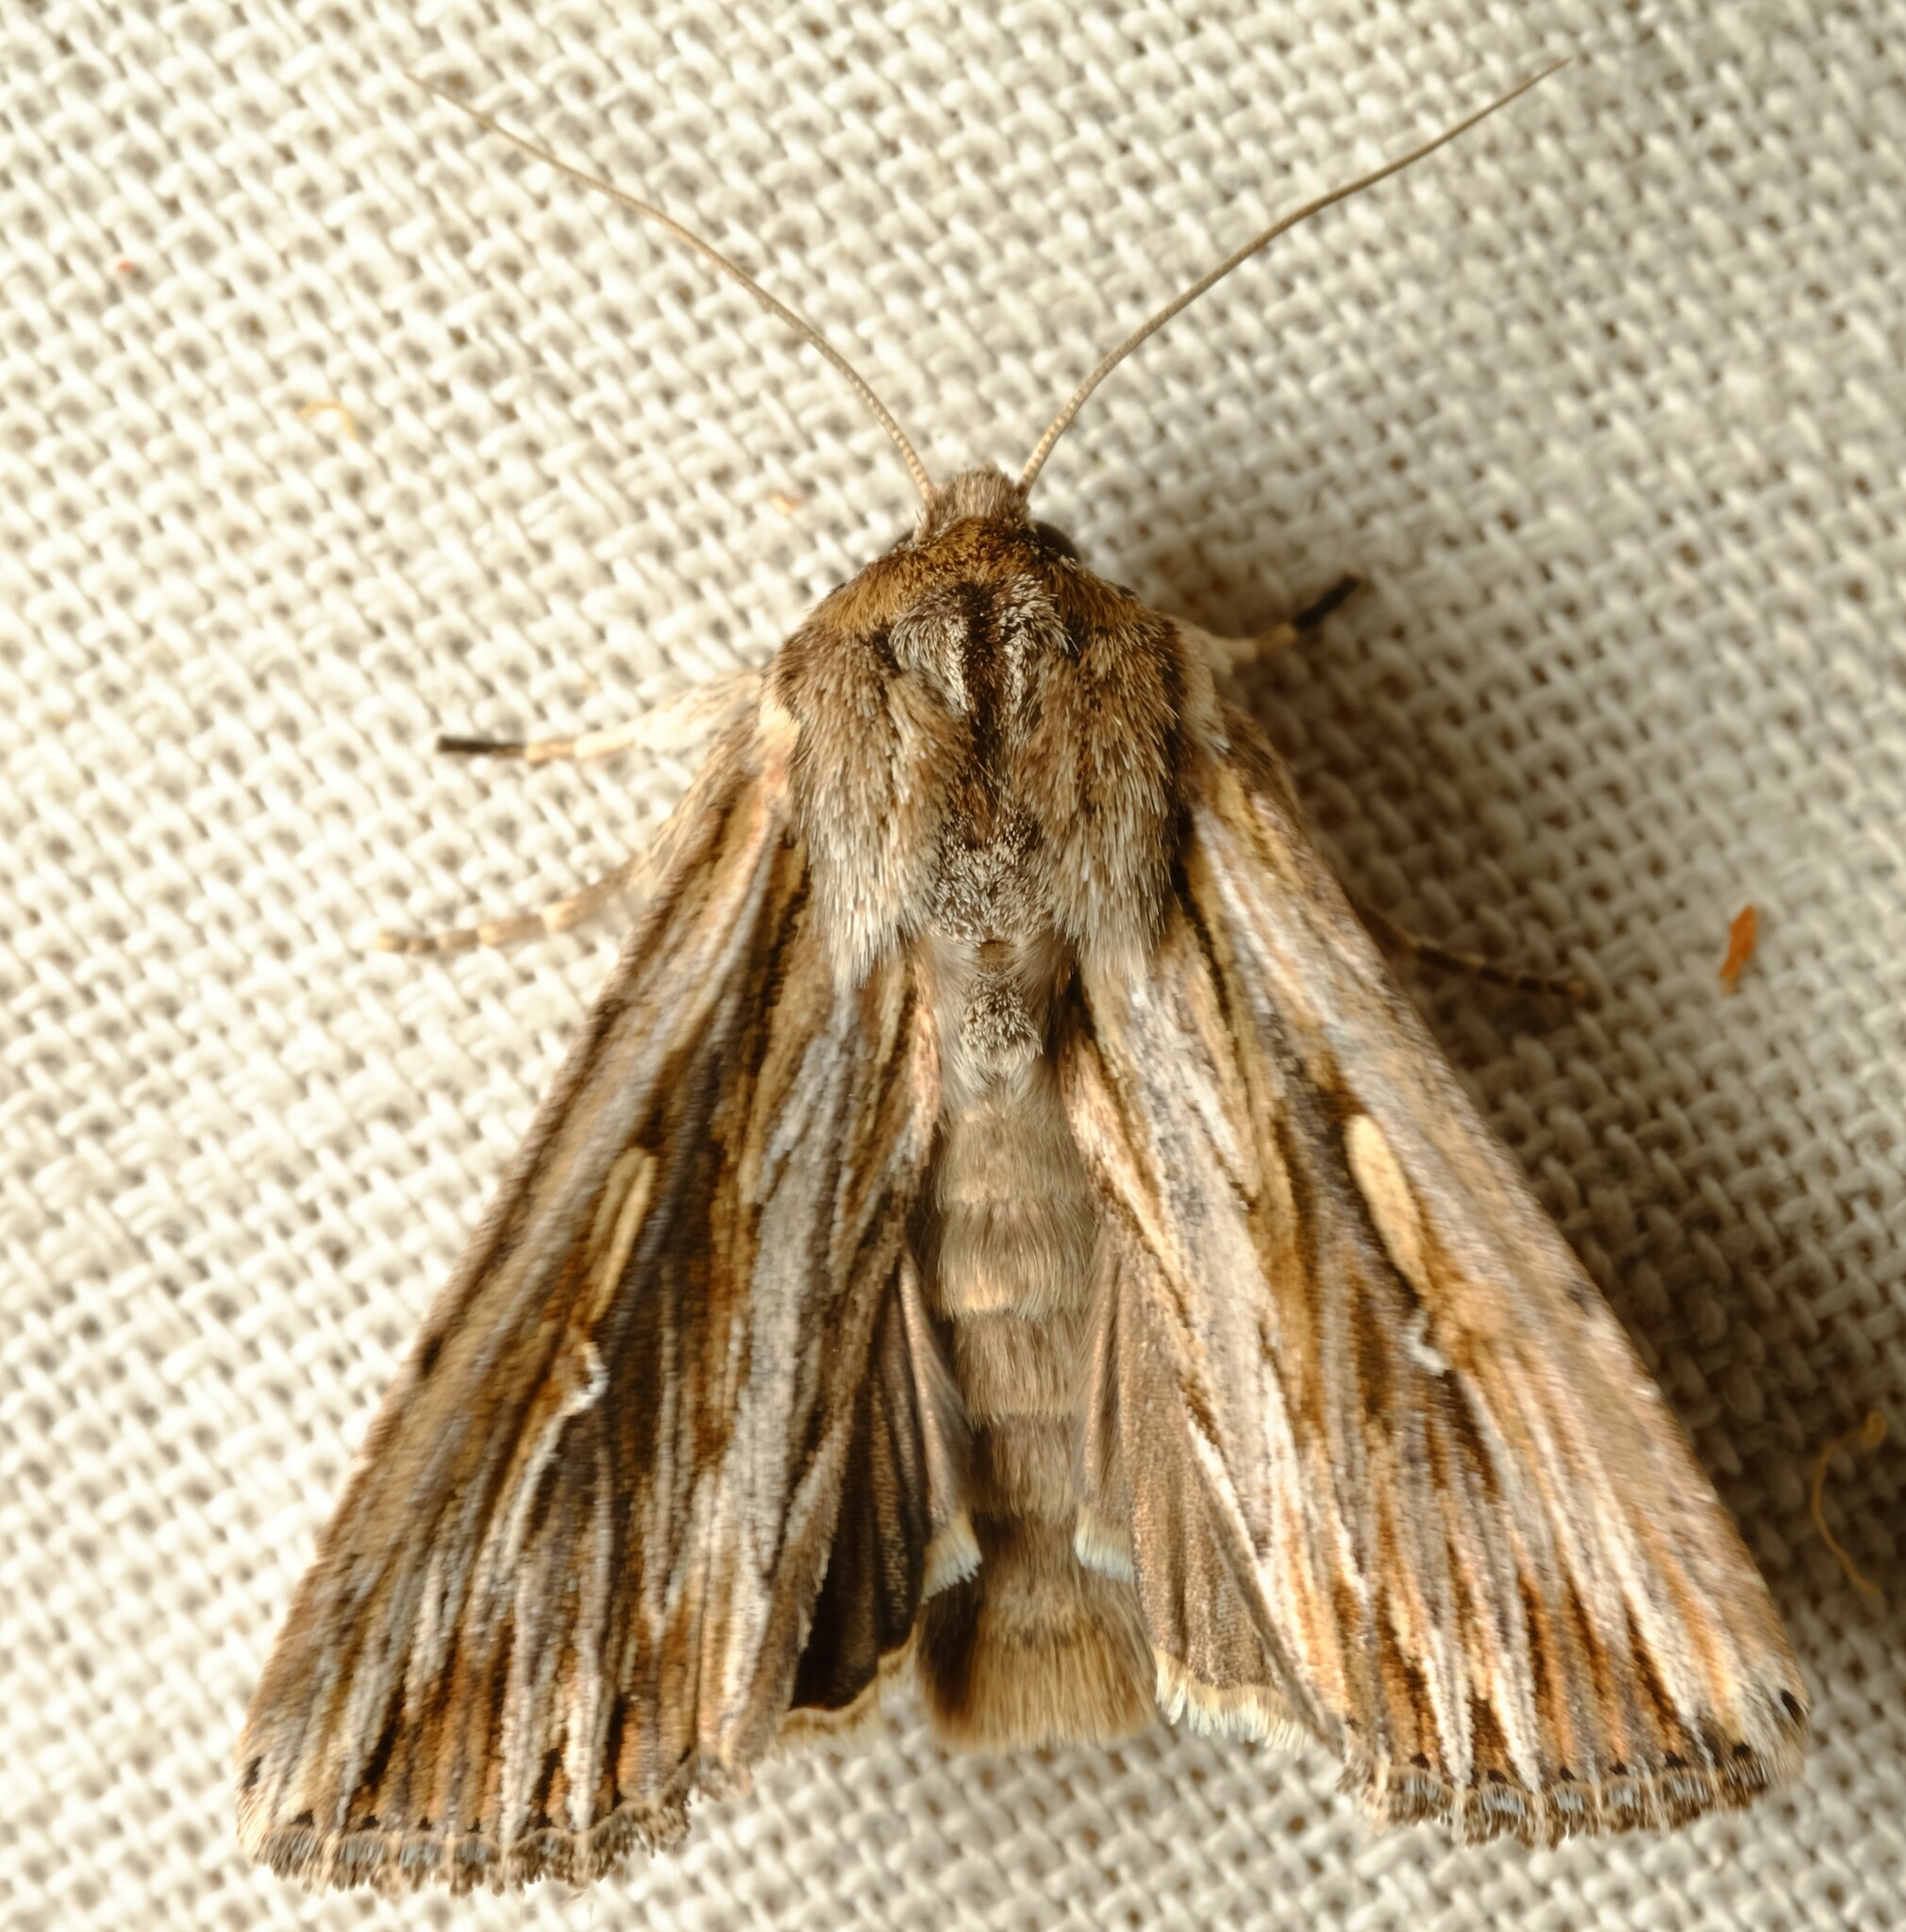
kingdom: Animalia
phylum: Arthropoda
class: Insecta
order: Lepidoptera
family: Noctuidae
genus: Persectania
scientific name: Persectania ewingii
